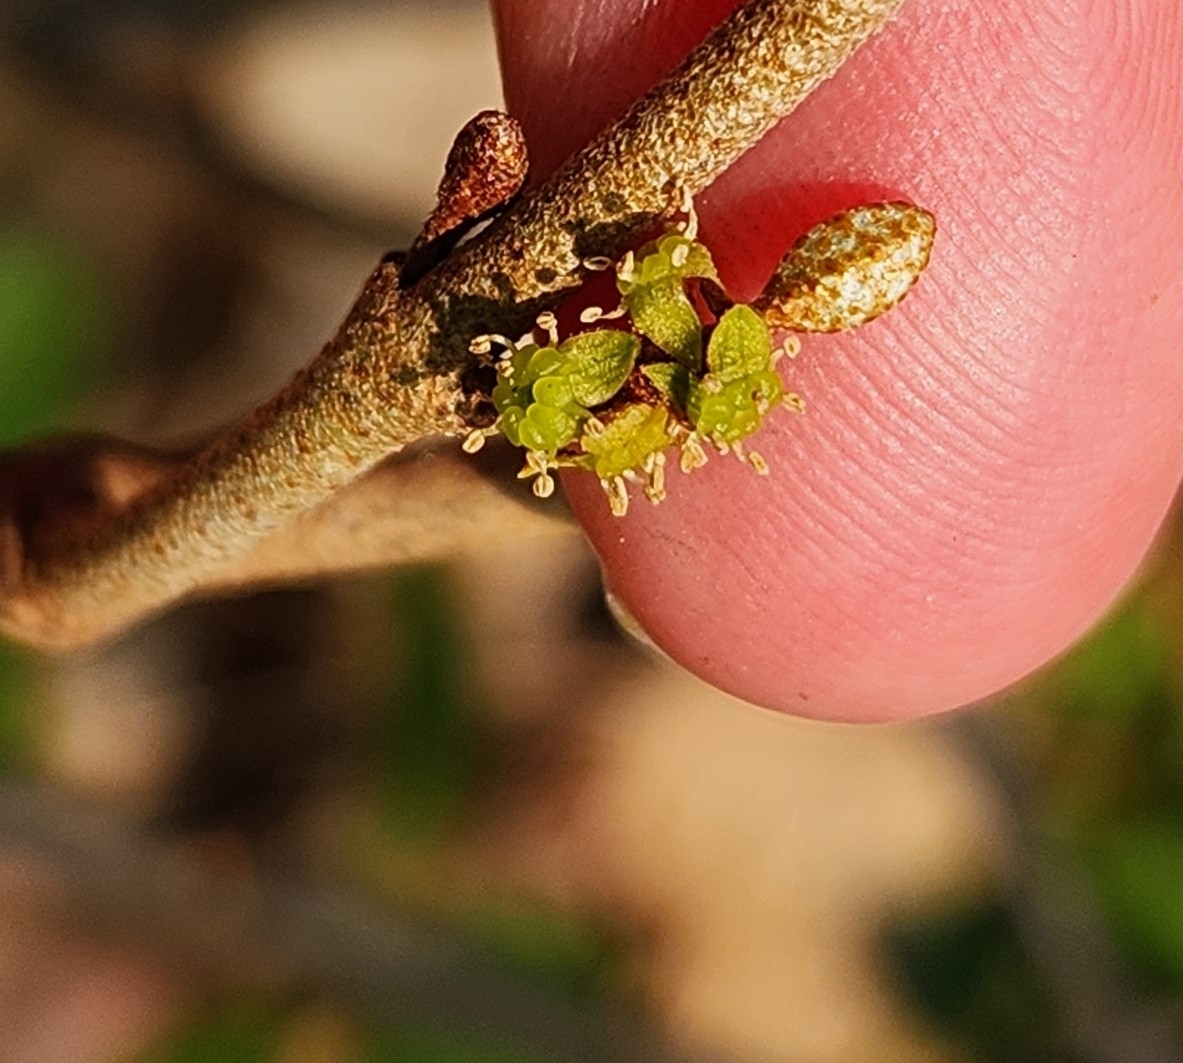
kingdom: Plantae
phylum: Tracheophyta
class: Magnoliopsida
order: Rosales
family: Elaeagnaceae
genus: Shepherdia
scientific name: Shepherdia canadensis
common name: Soapberry
